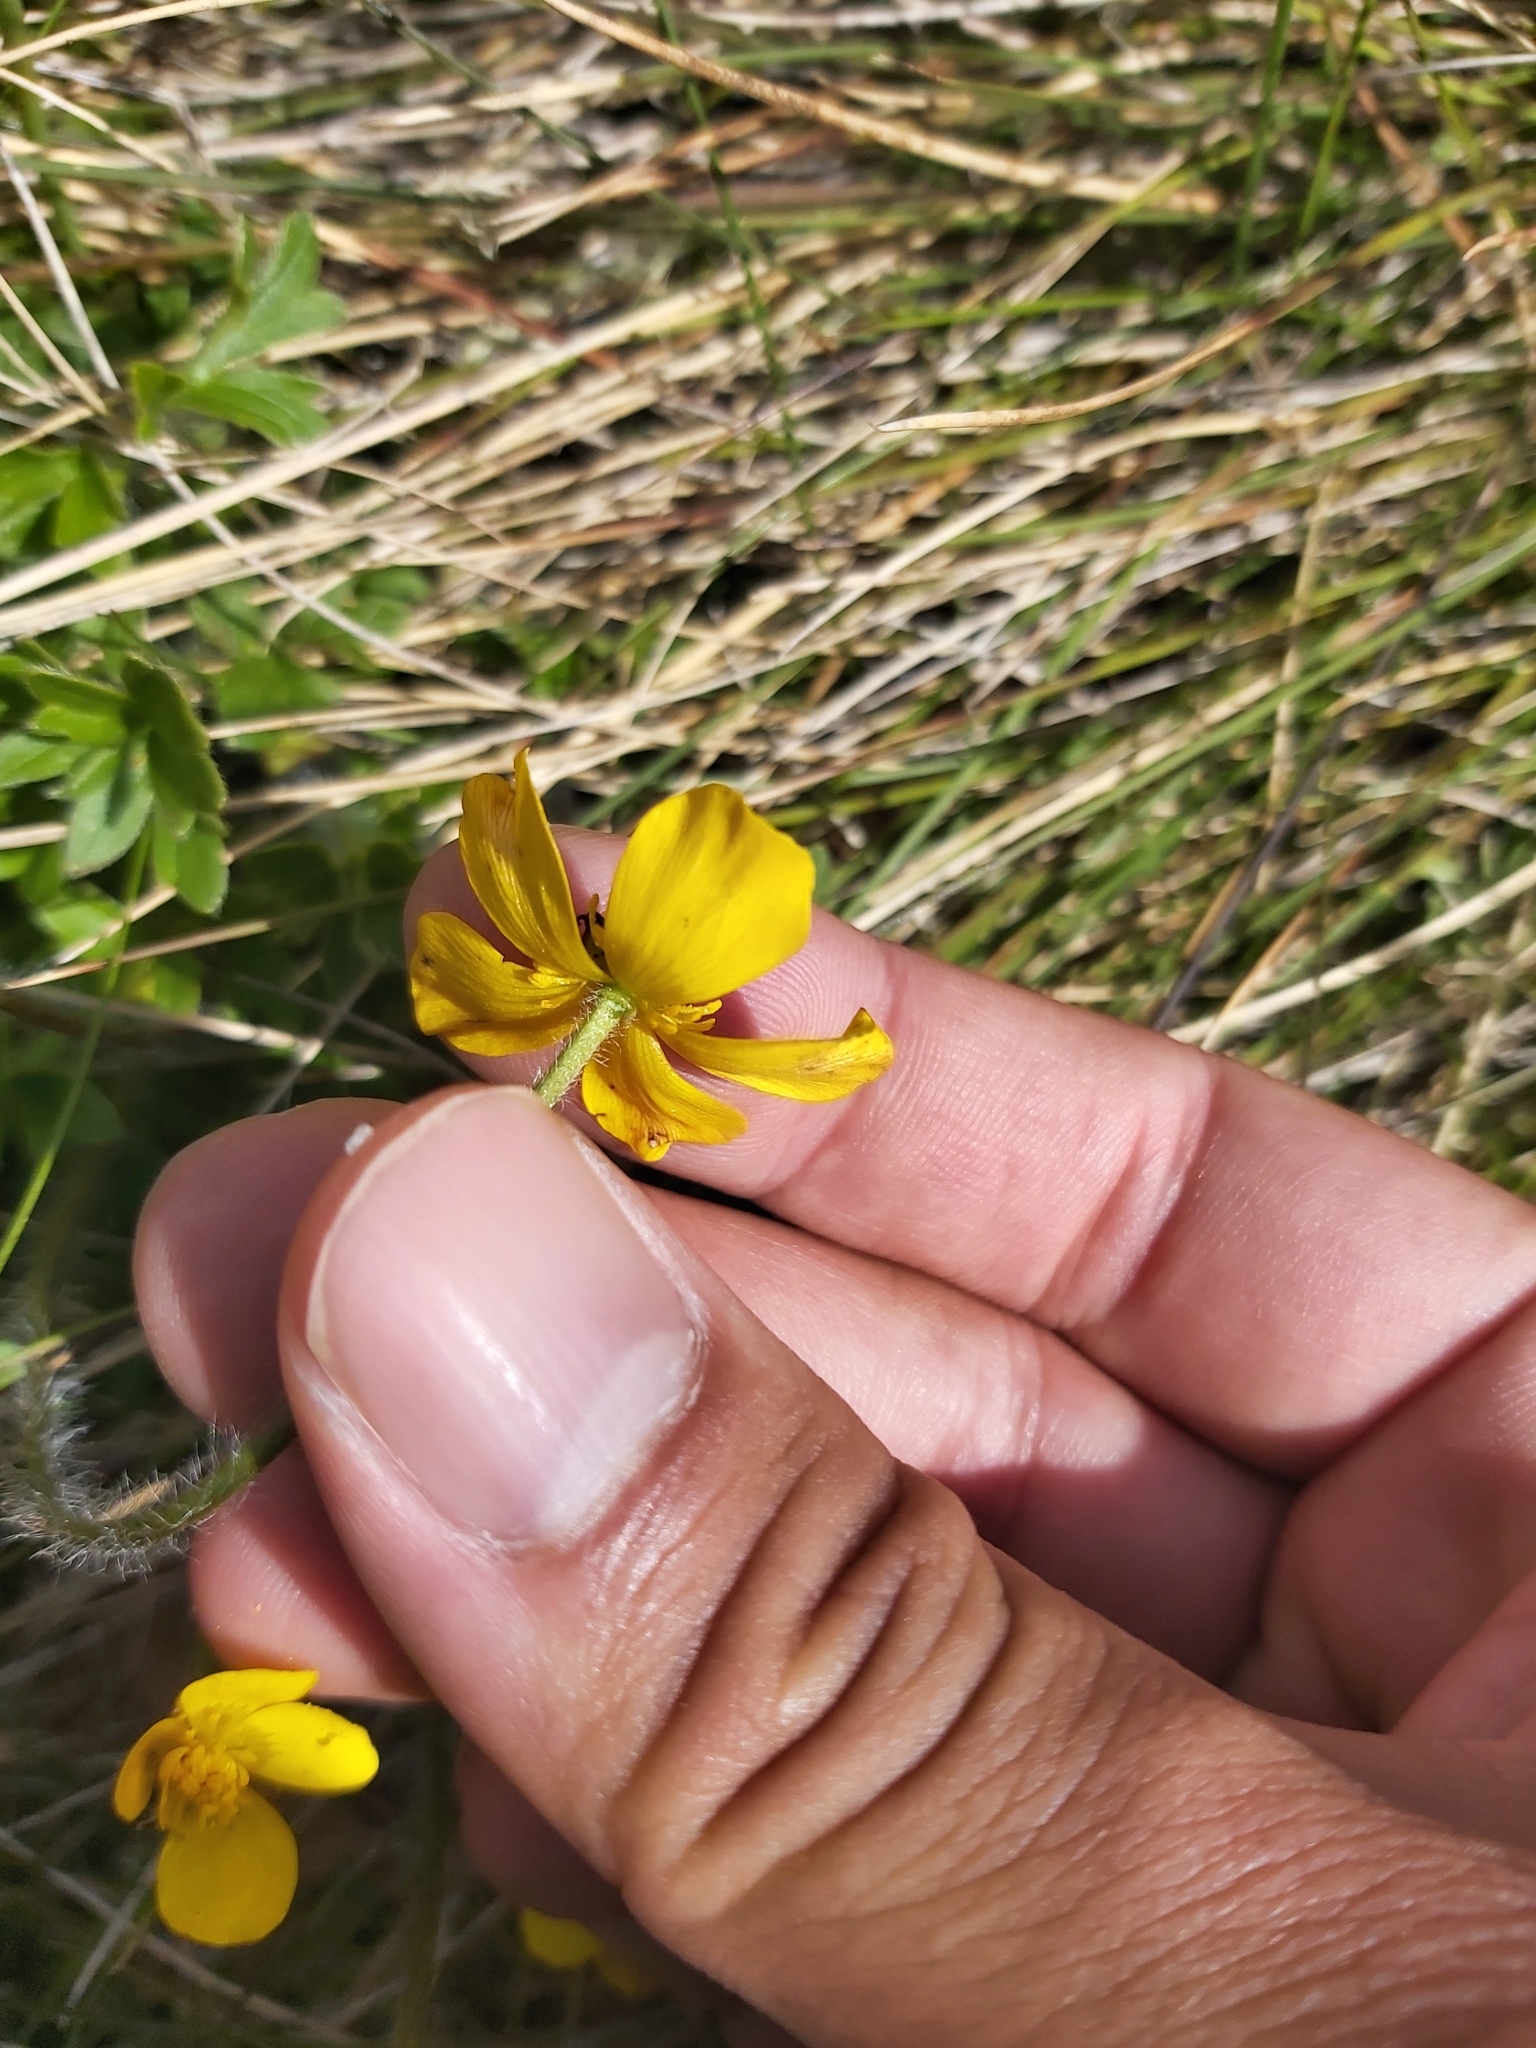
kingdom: Plantae
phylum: Tracheophyta
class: Magnoliopsida
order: Ranunculales
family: Ranunculaceae
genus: Ranunculus
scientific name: Ranunculus graniticola
